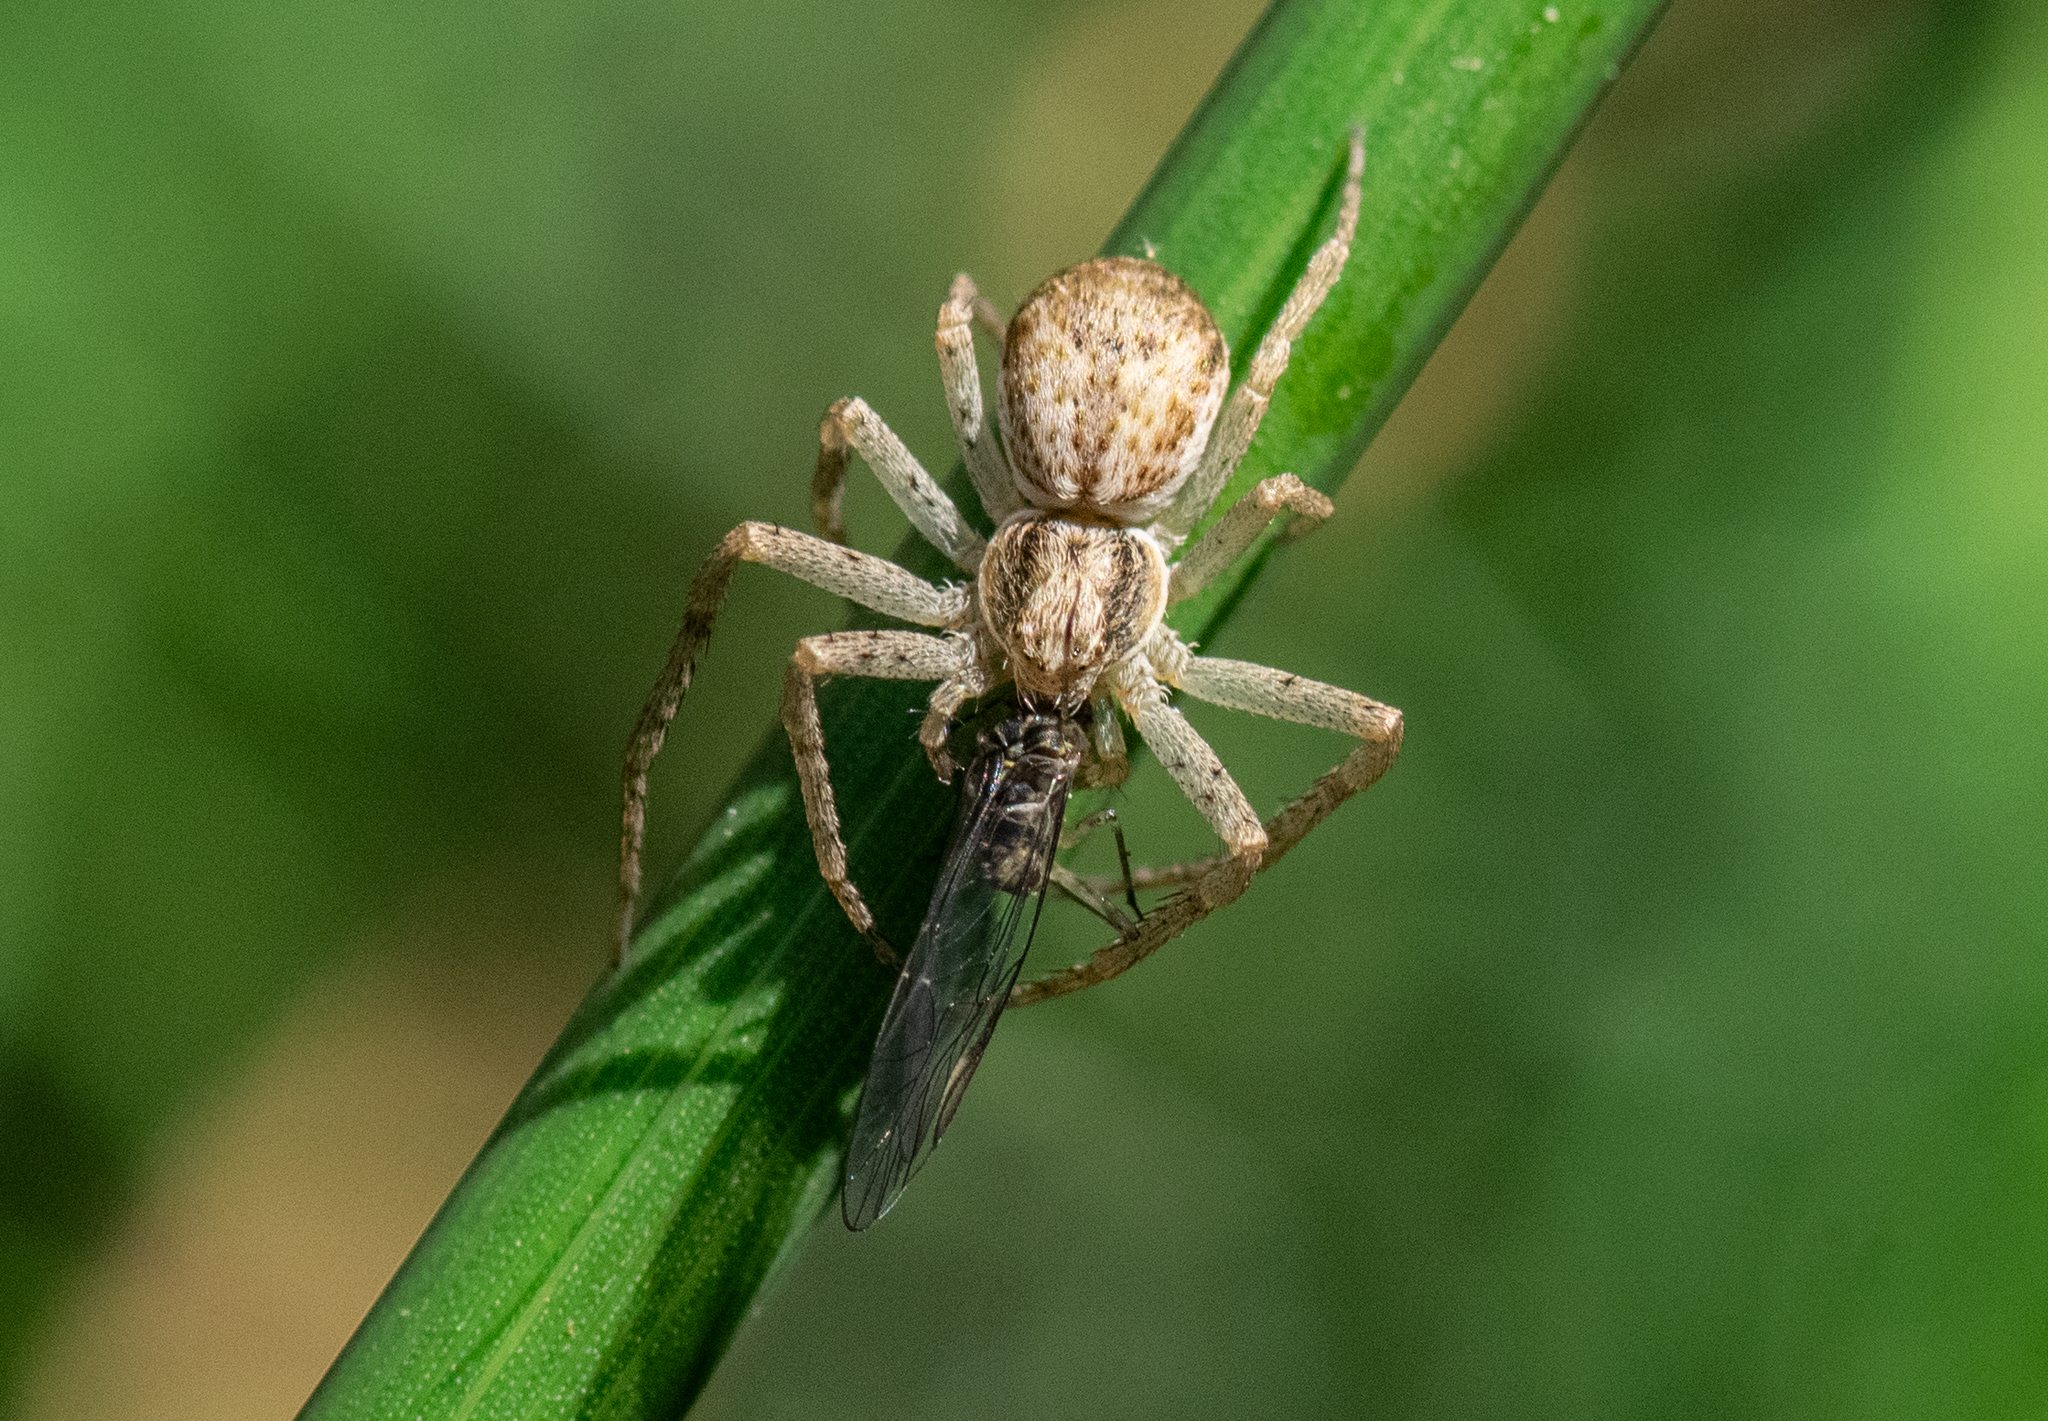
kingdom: Animalia
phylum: Arthropoda
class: Arachnida
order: Araneae
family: Philodromidae
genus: Philodromus
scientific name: Philodromus dispar
